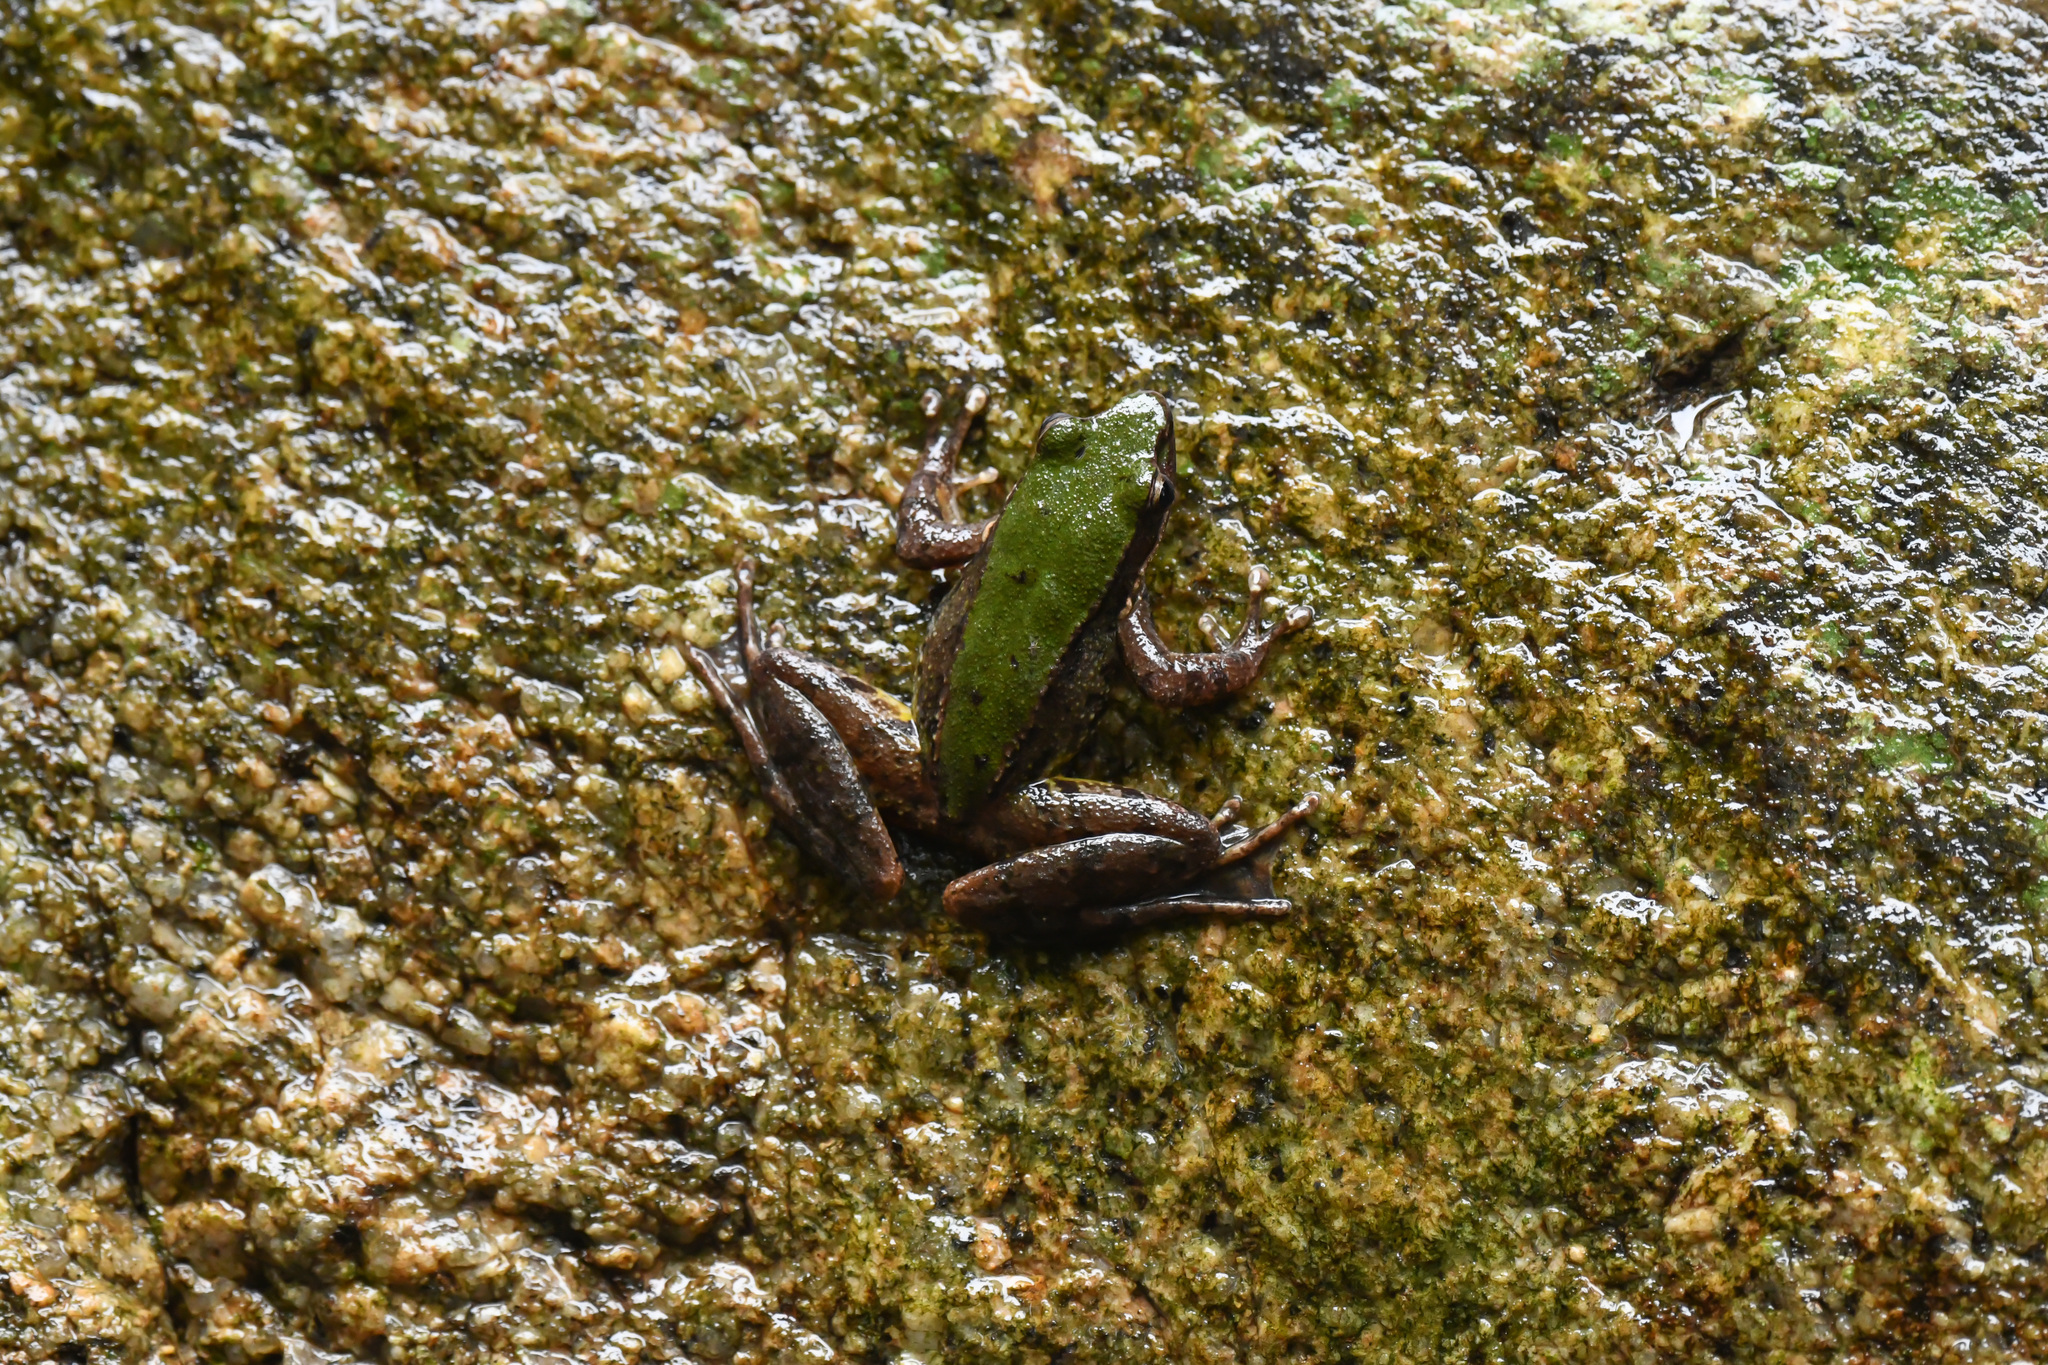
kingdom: Animalia
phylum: Chordata
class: Amphibia
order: Anura
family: Ranidae
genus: Odorrana
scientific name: Odorrana exiliversabilis
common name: Fujian bamboo-leaf frog
